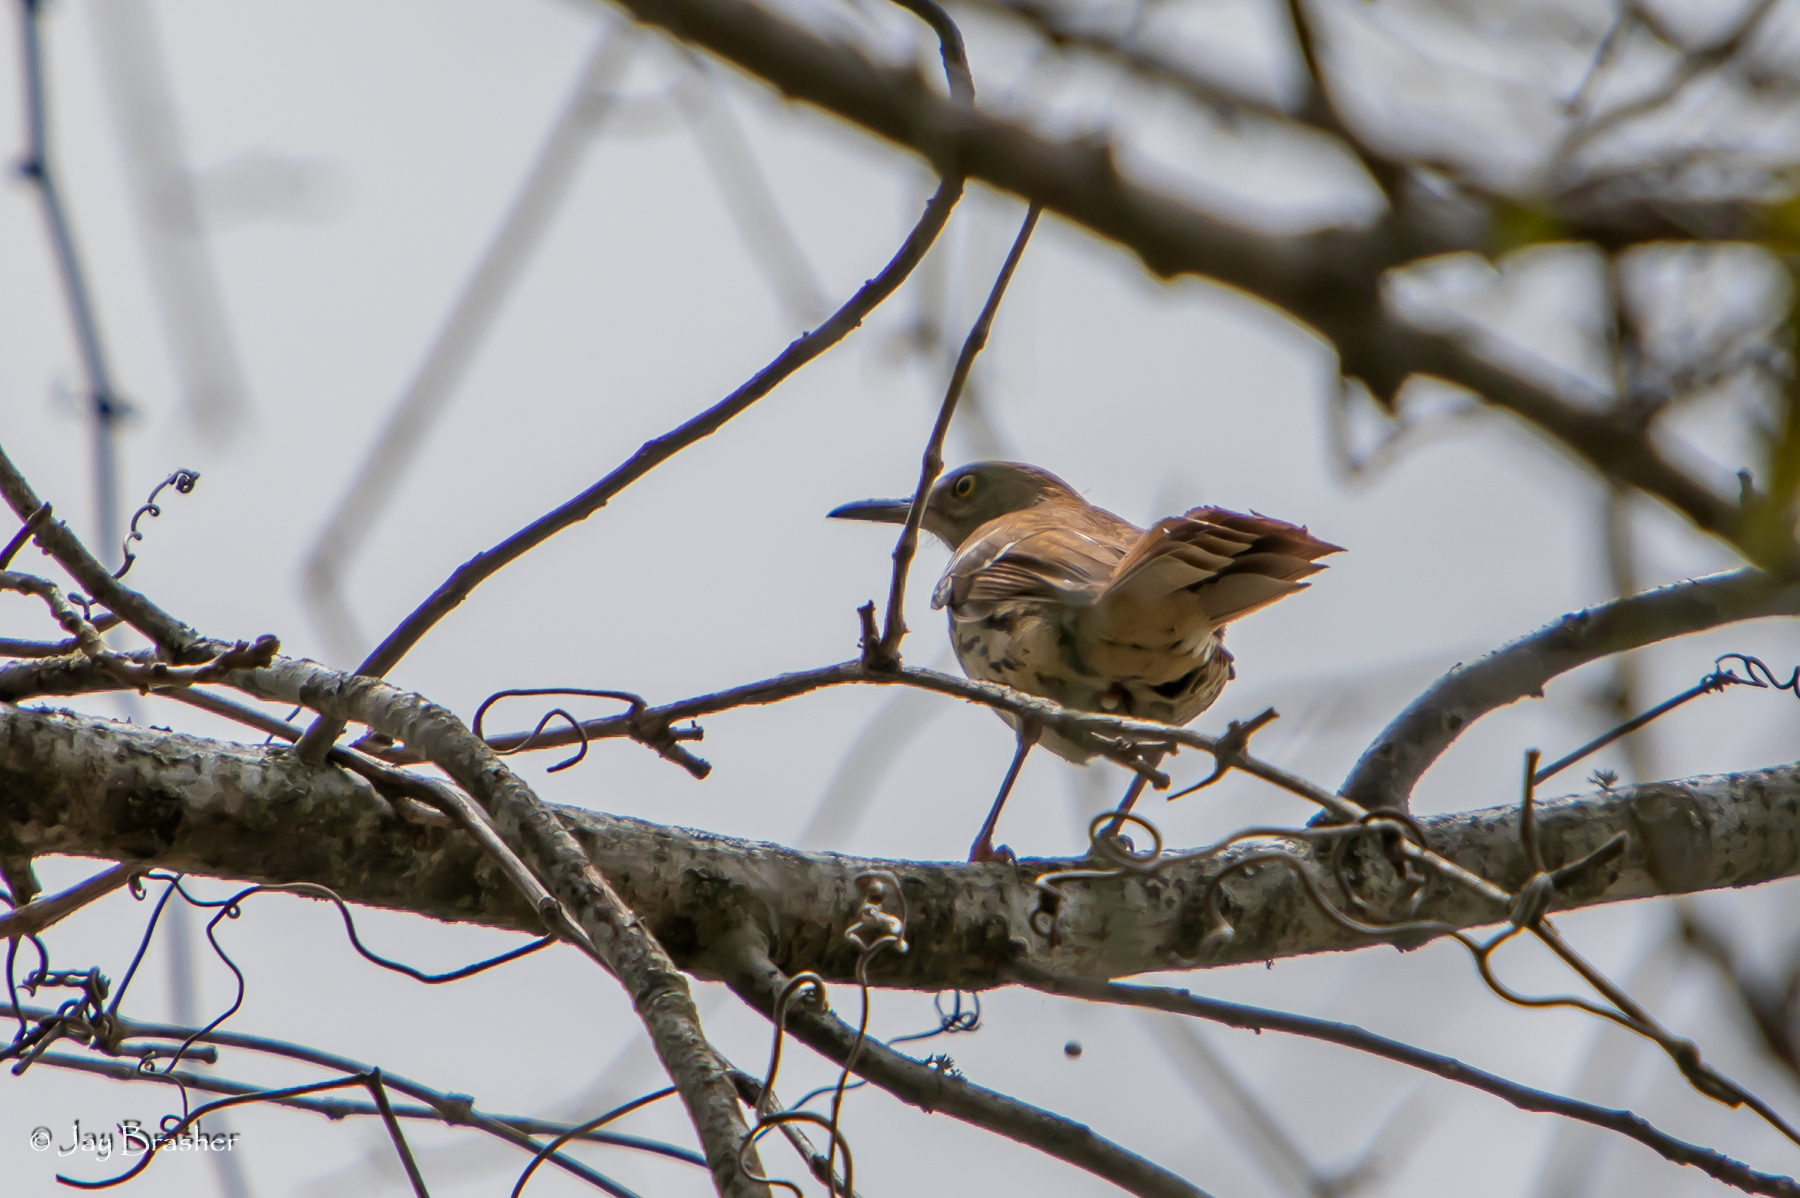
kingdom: Animalia
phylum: Chordata
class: Aves
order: Passeriformes
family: Mimidae
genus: Toxostoma
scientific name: Toxostoma rufum
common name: Brown thrasher
